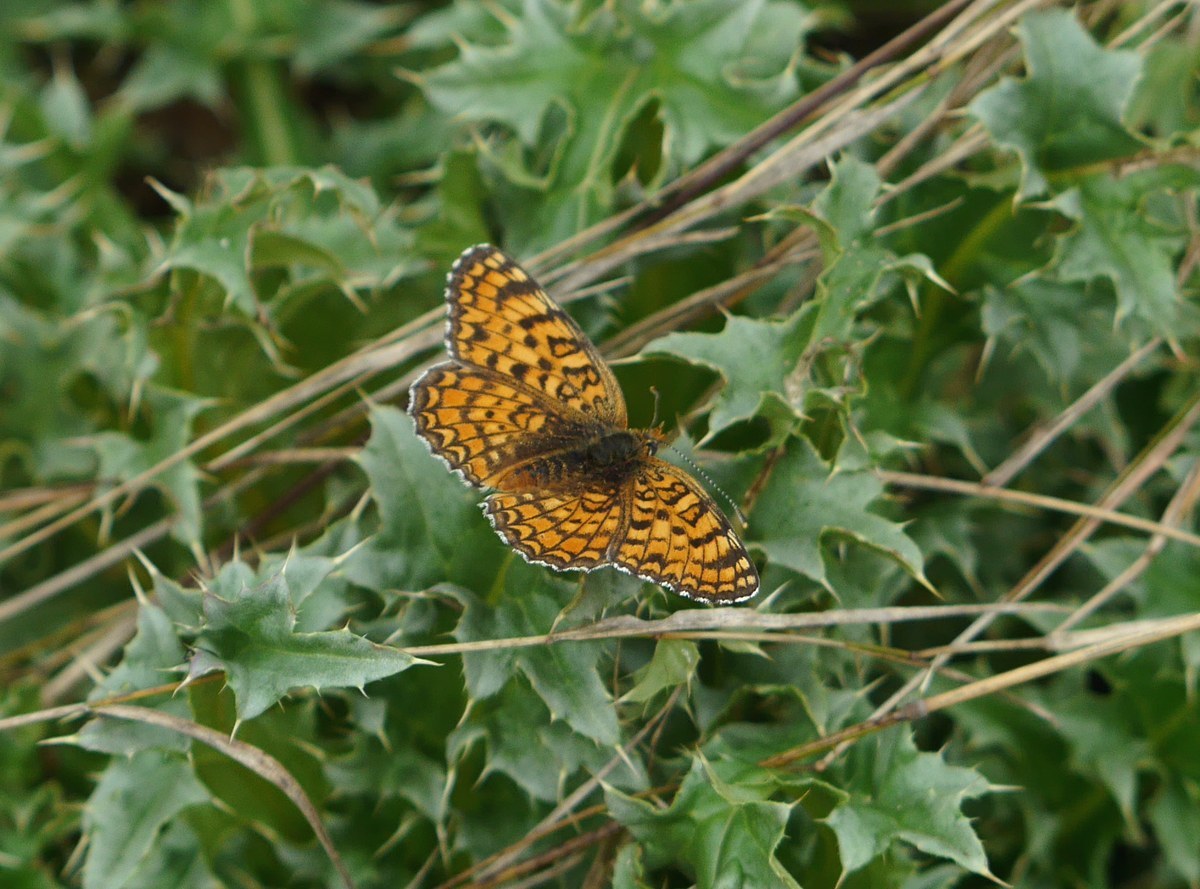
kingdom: Animalia
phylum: Arthropoda
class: Insecta
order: Lepidoptera
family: Nymphalidae
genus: Melitaea
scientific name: Melitaea phoebe
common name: Knapweed fritillary
